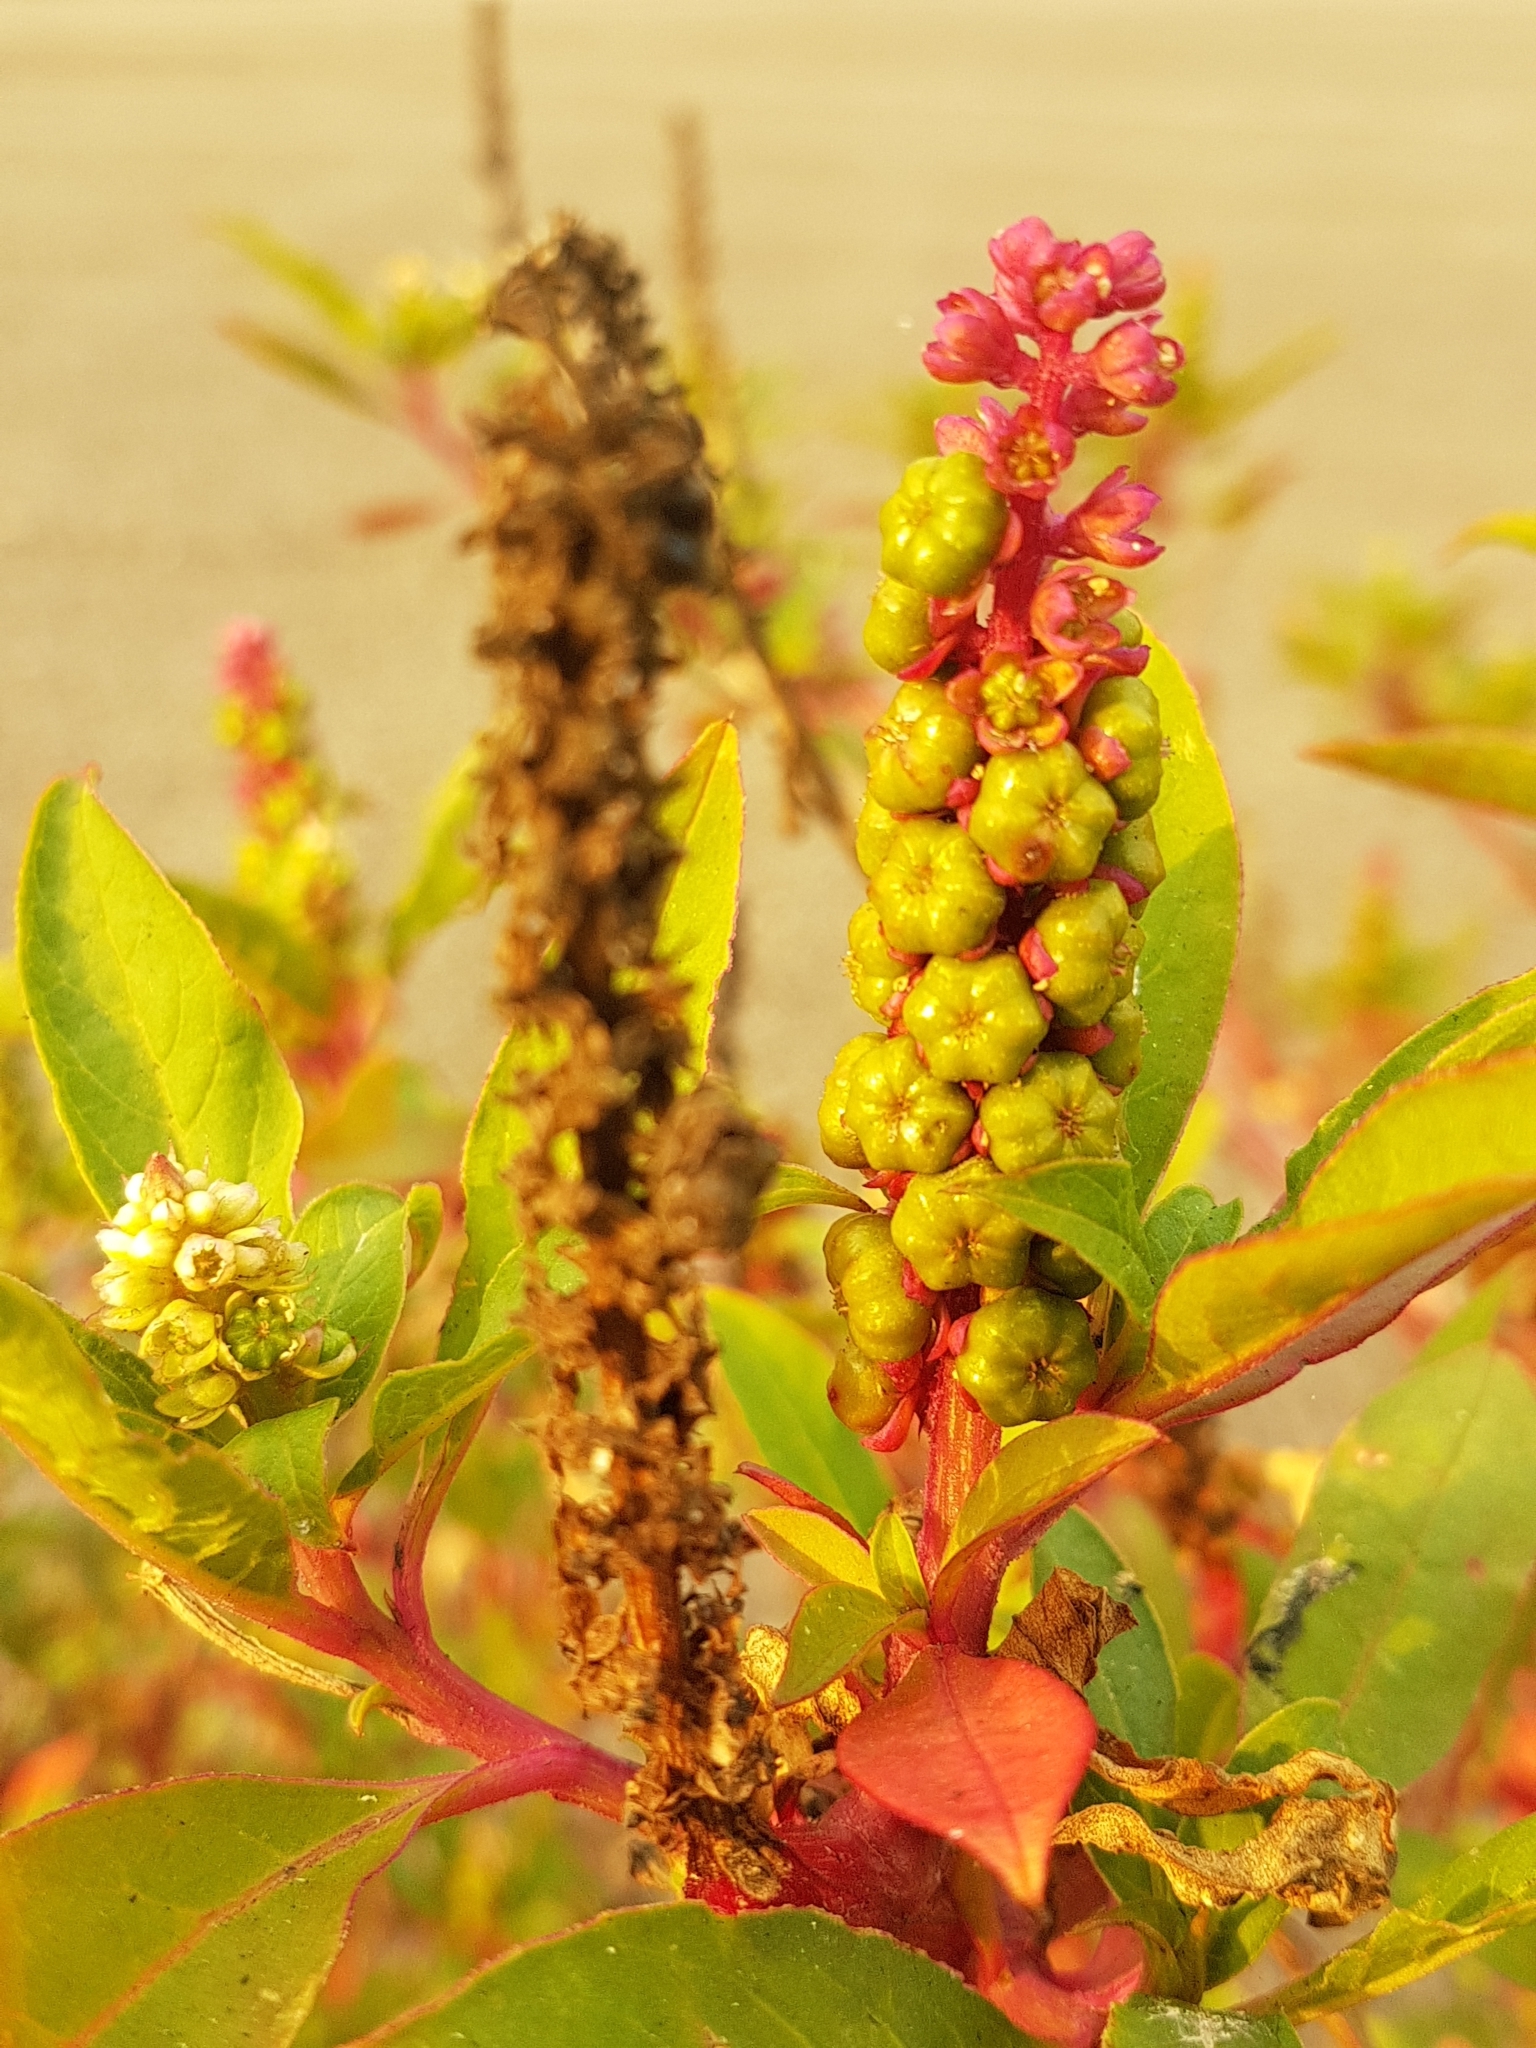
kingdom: Plantae
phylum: Tracheophyta
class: Magnoliopsida
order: Caryophyllales
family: Phytolaccaceae
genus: Phytolacca
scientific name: Phytolacca icosandra
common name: Button pokeweed
